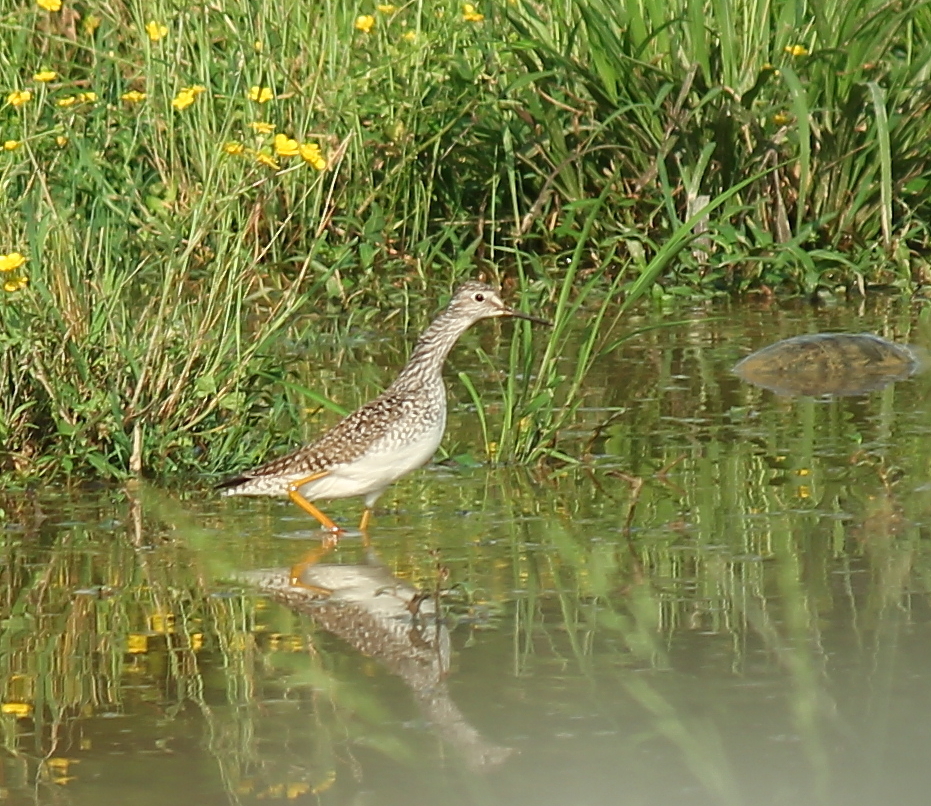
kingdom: Animalia
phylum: Chordata
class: Aves
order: Charadriiformes
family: Scolopacidae
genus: Tringa
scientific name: Tringa flavipes
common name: Lesser yellowlegs
